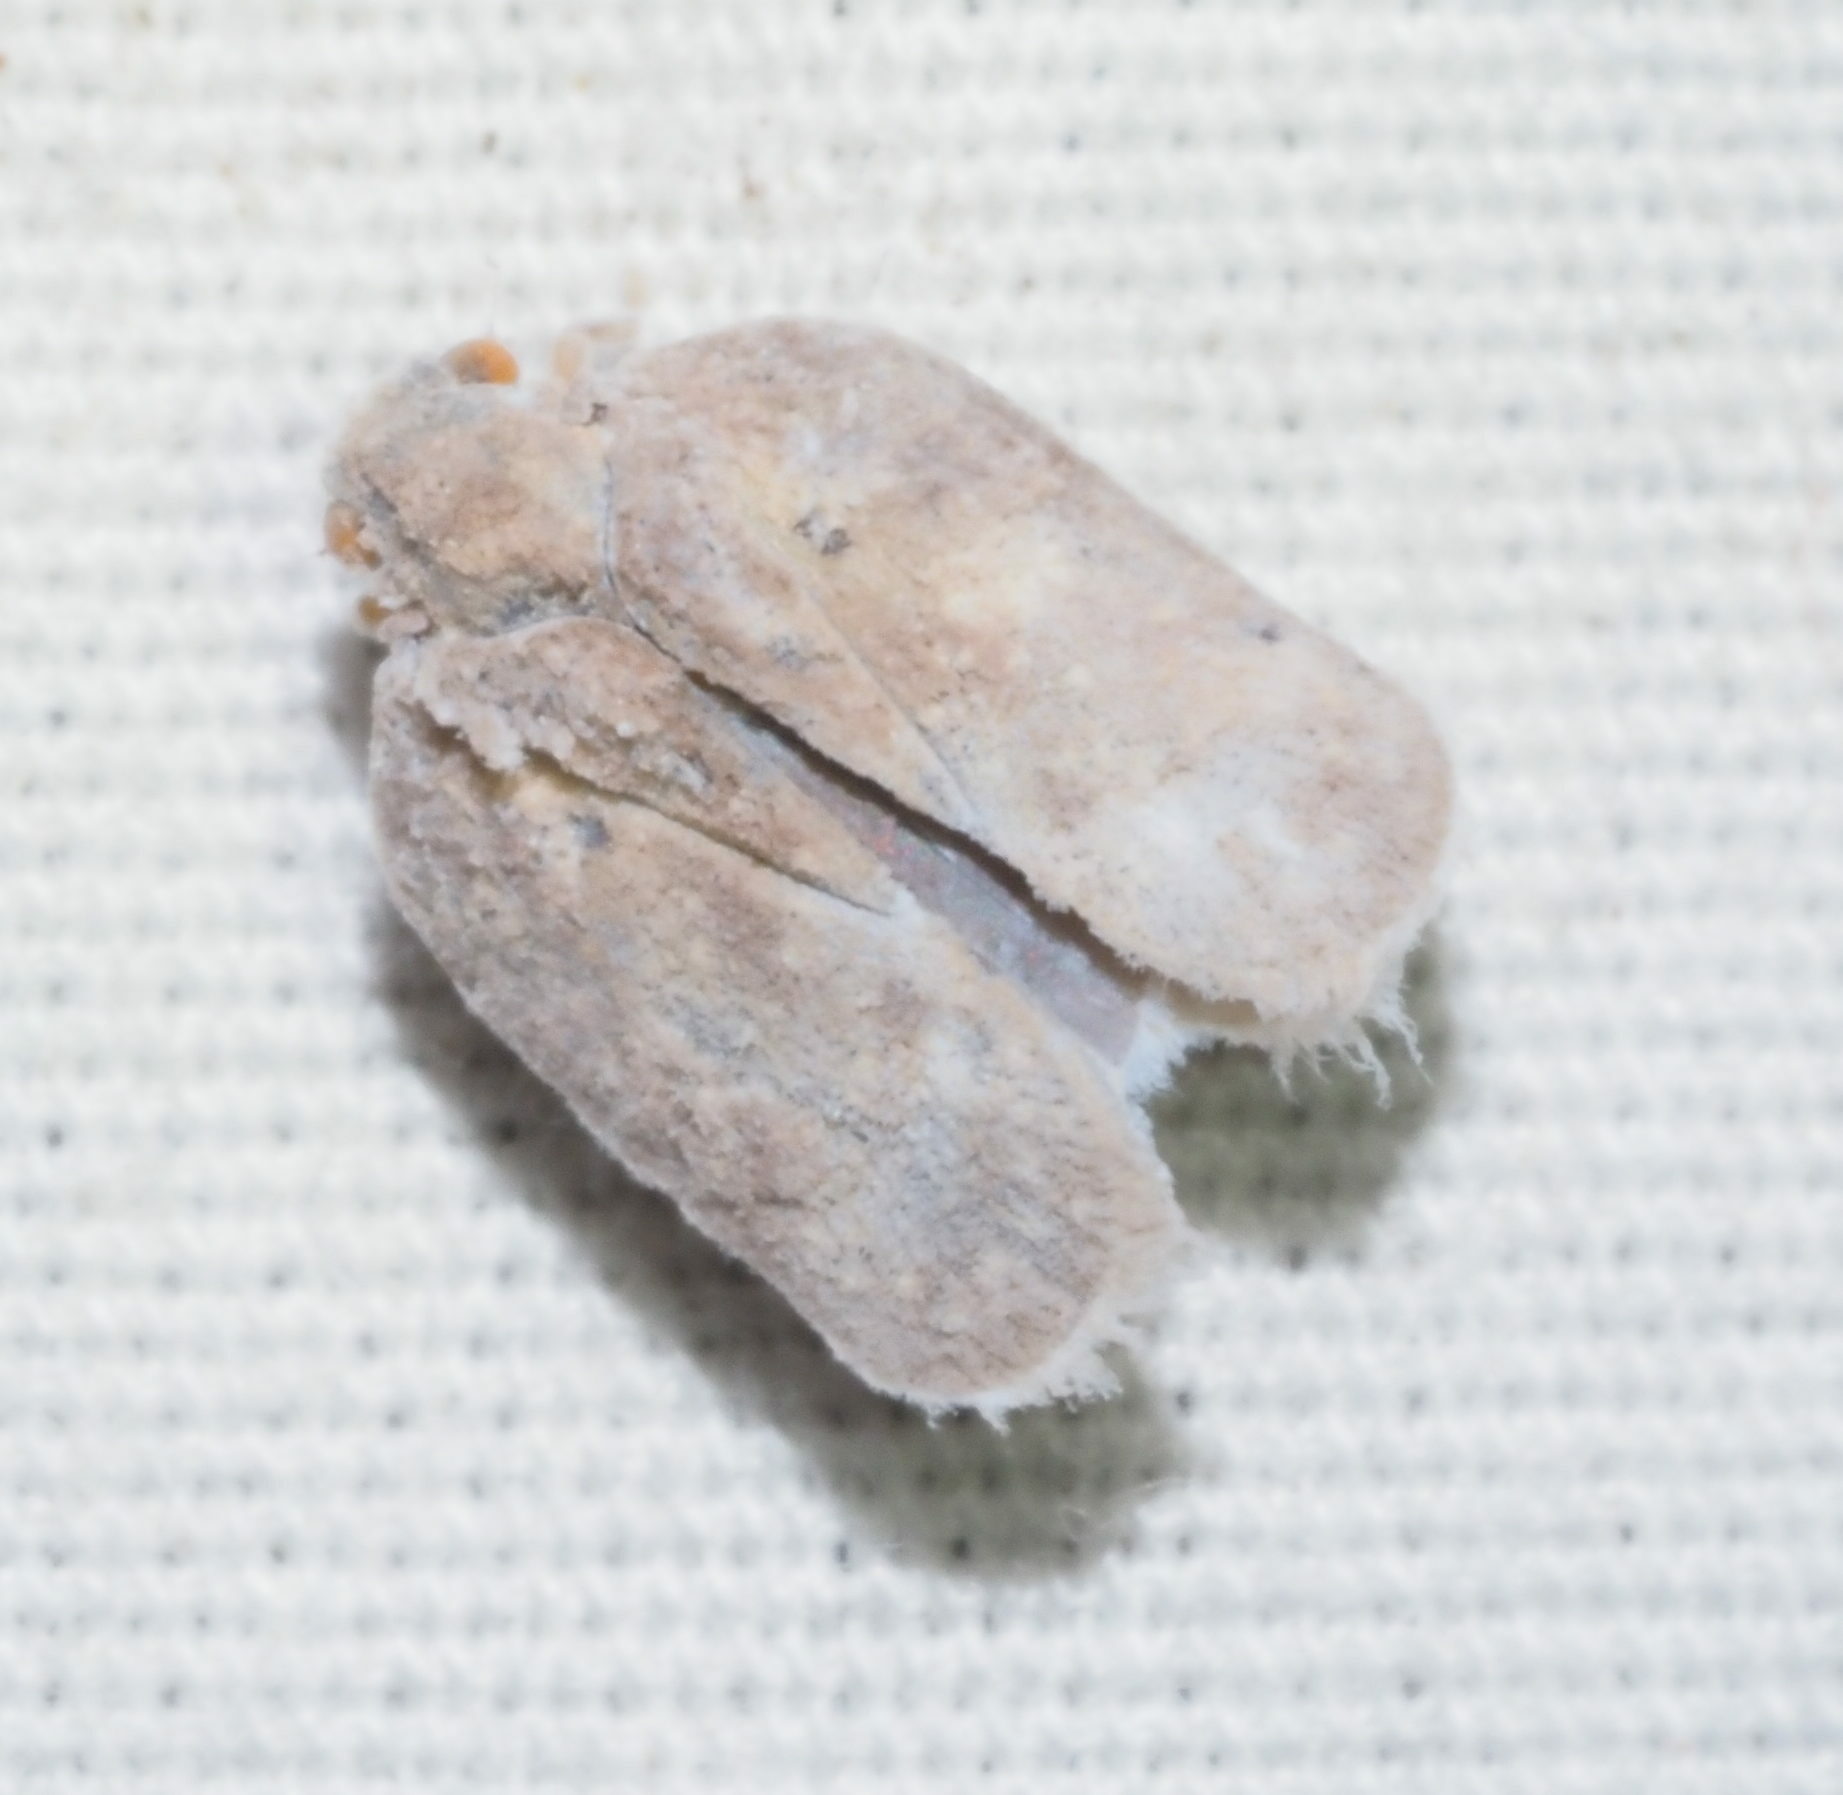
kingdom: Animalia
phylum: Arthropoda
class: Insecta
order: Hemiptera
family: Flatidae
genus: Melormenis
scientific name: Melormenis basalis
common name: Puerto rican planthopper
